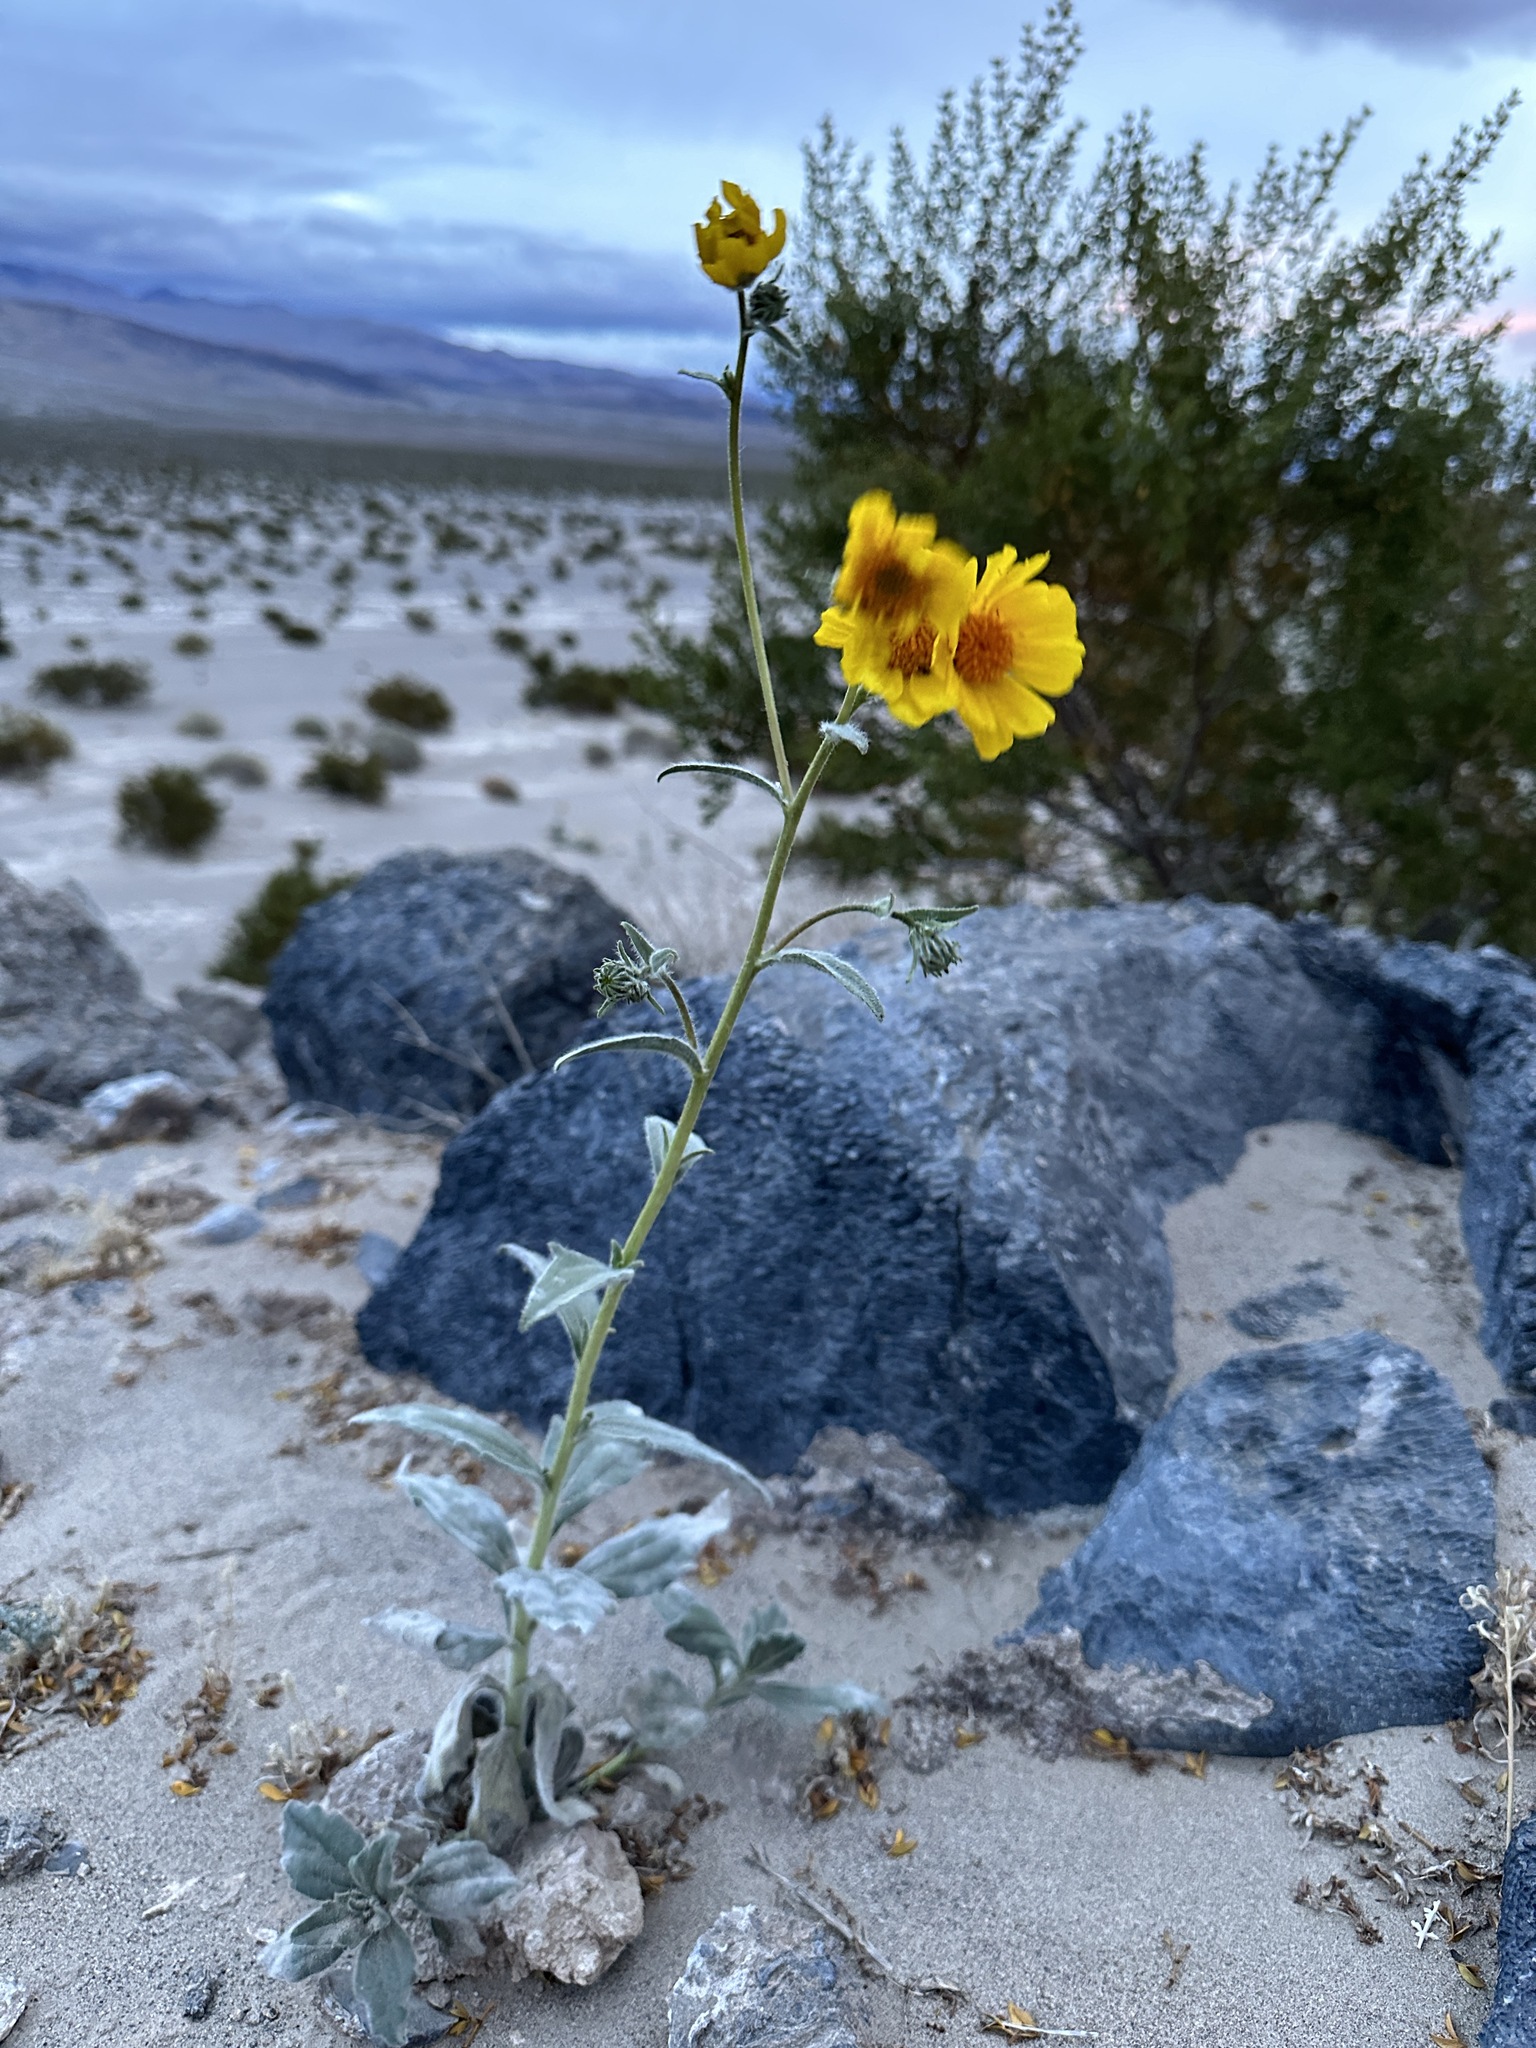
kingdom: Plantae
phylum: Tracheophyta
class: Magnoliopsida
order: Asterales
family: Asteraceae
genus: Geraea
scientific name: Geraea canescens
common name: Desert-gold
